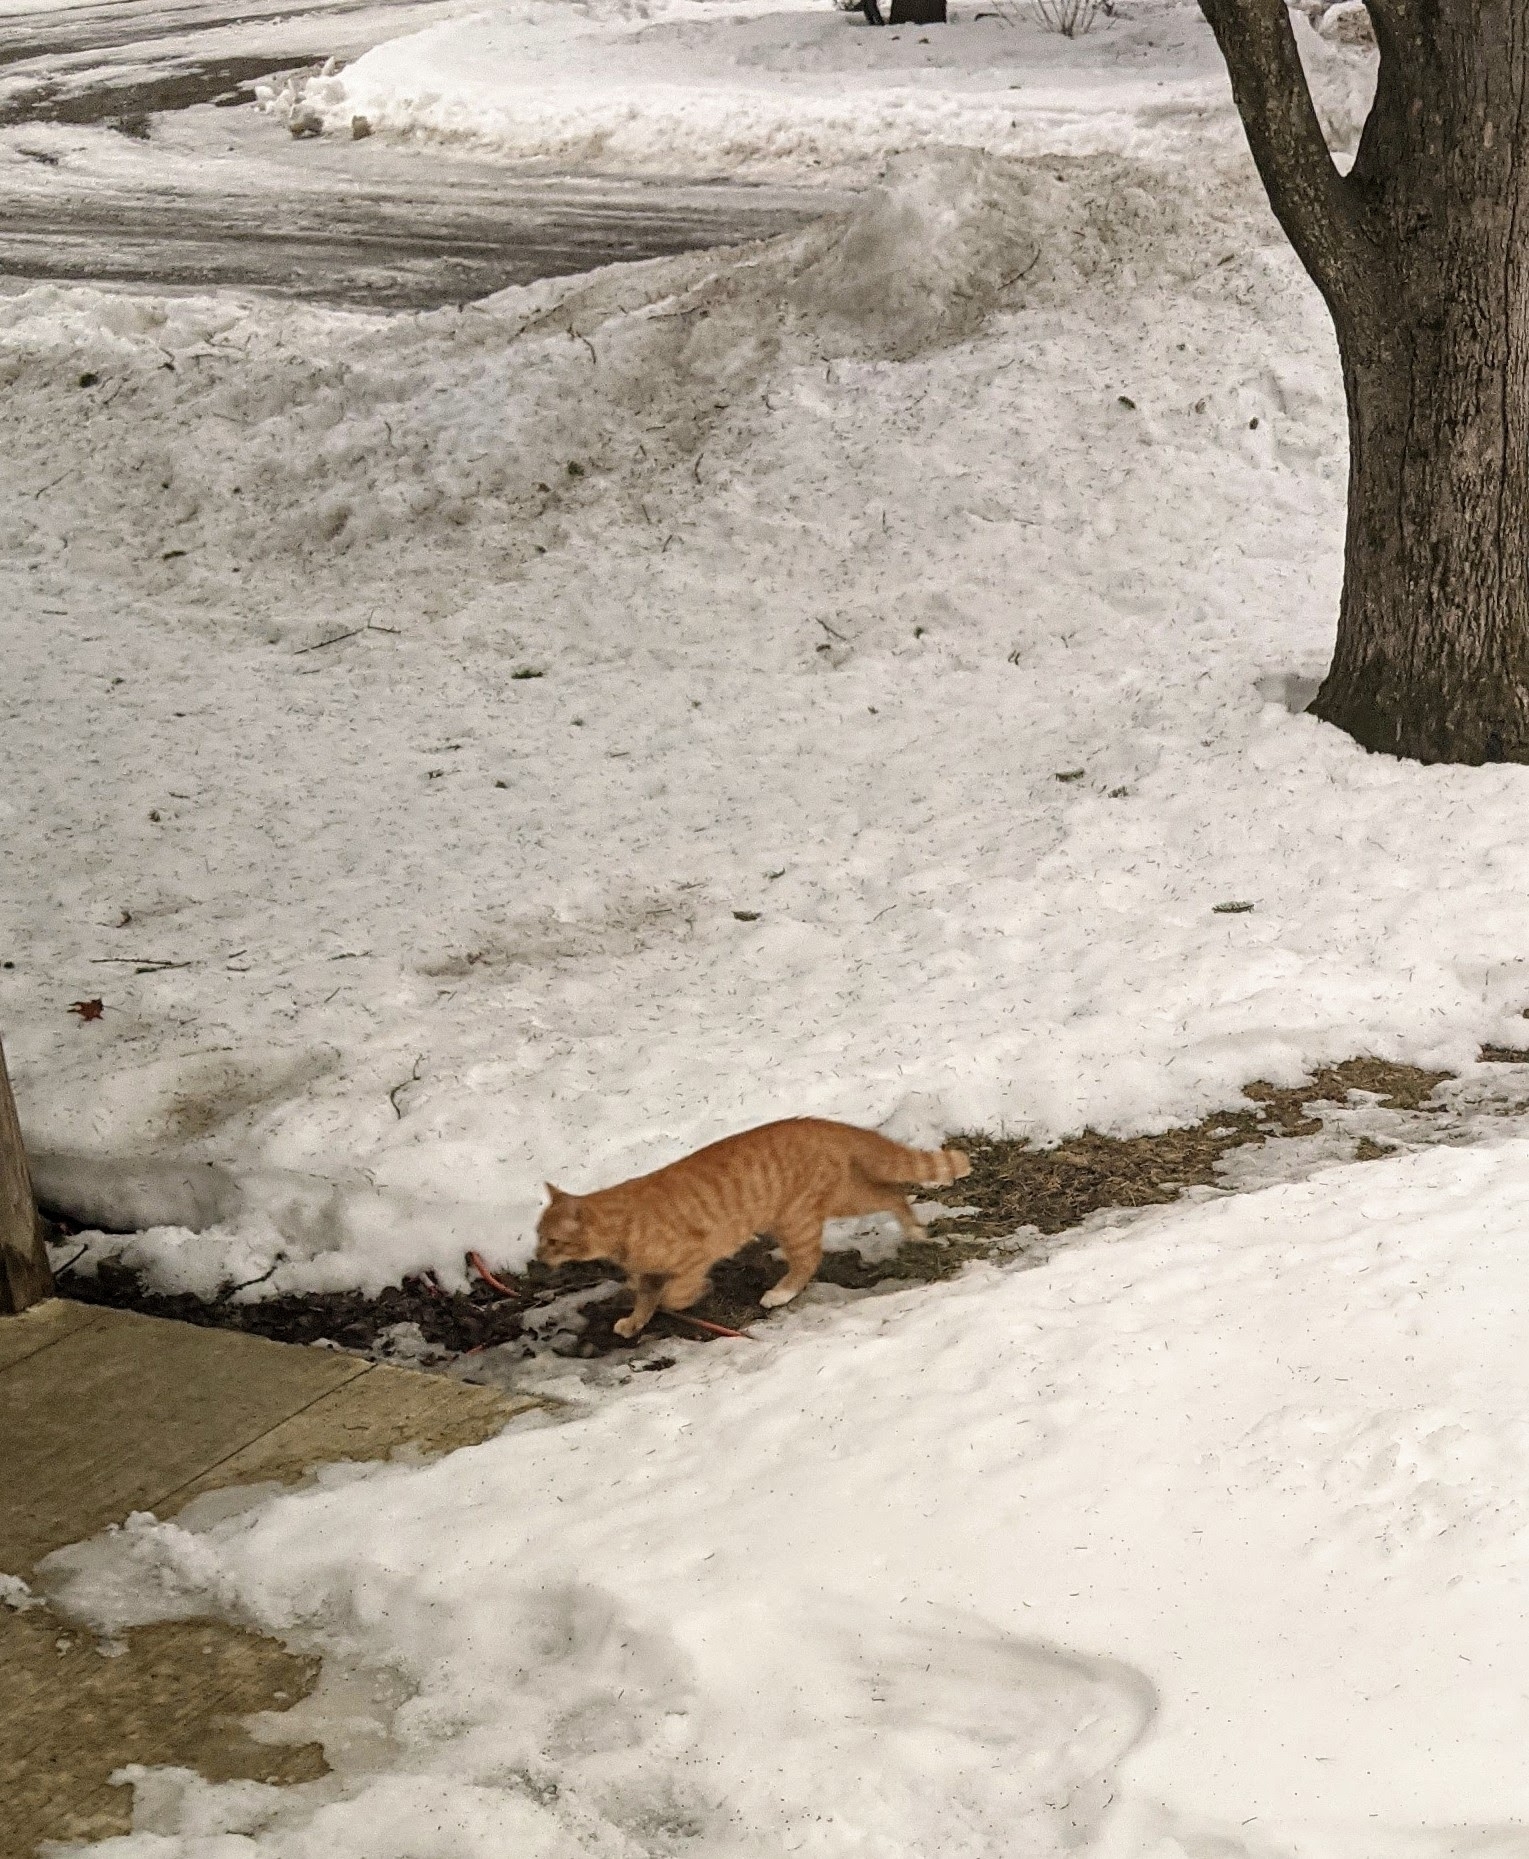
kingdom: Animalia
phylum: Chordata
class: Mammalia
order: Carnivora
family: Felidae
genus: Felis
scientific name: Felis catus
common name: Domestic cat
